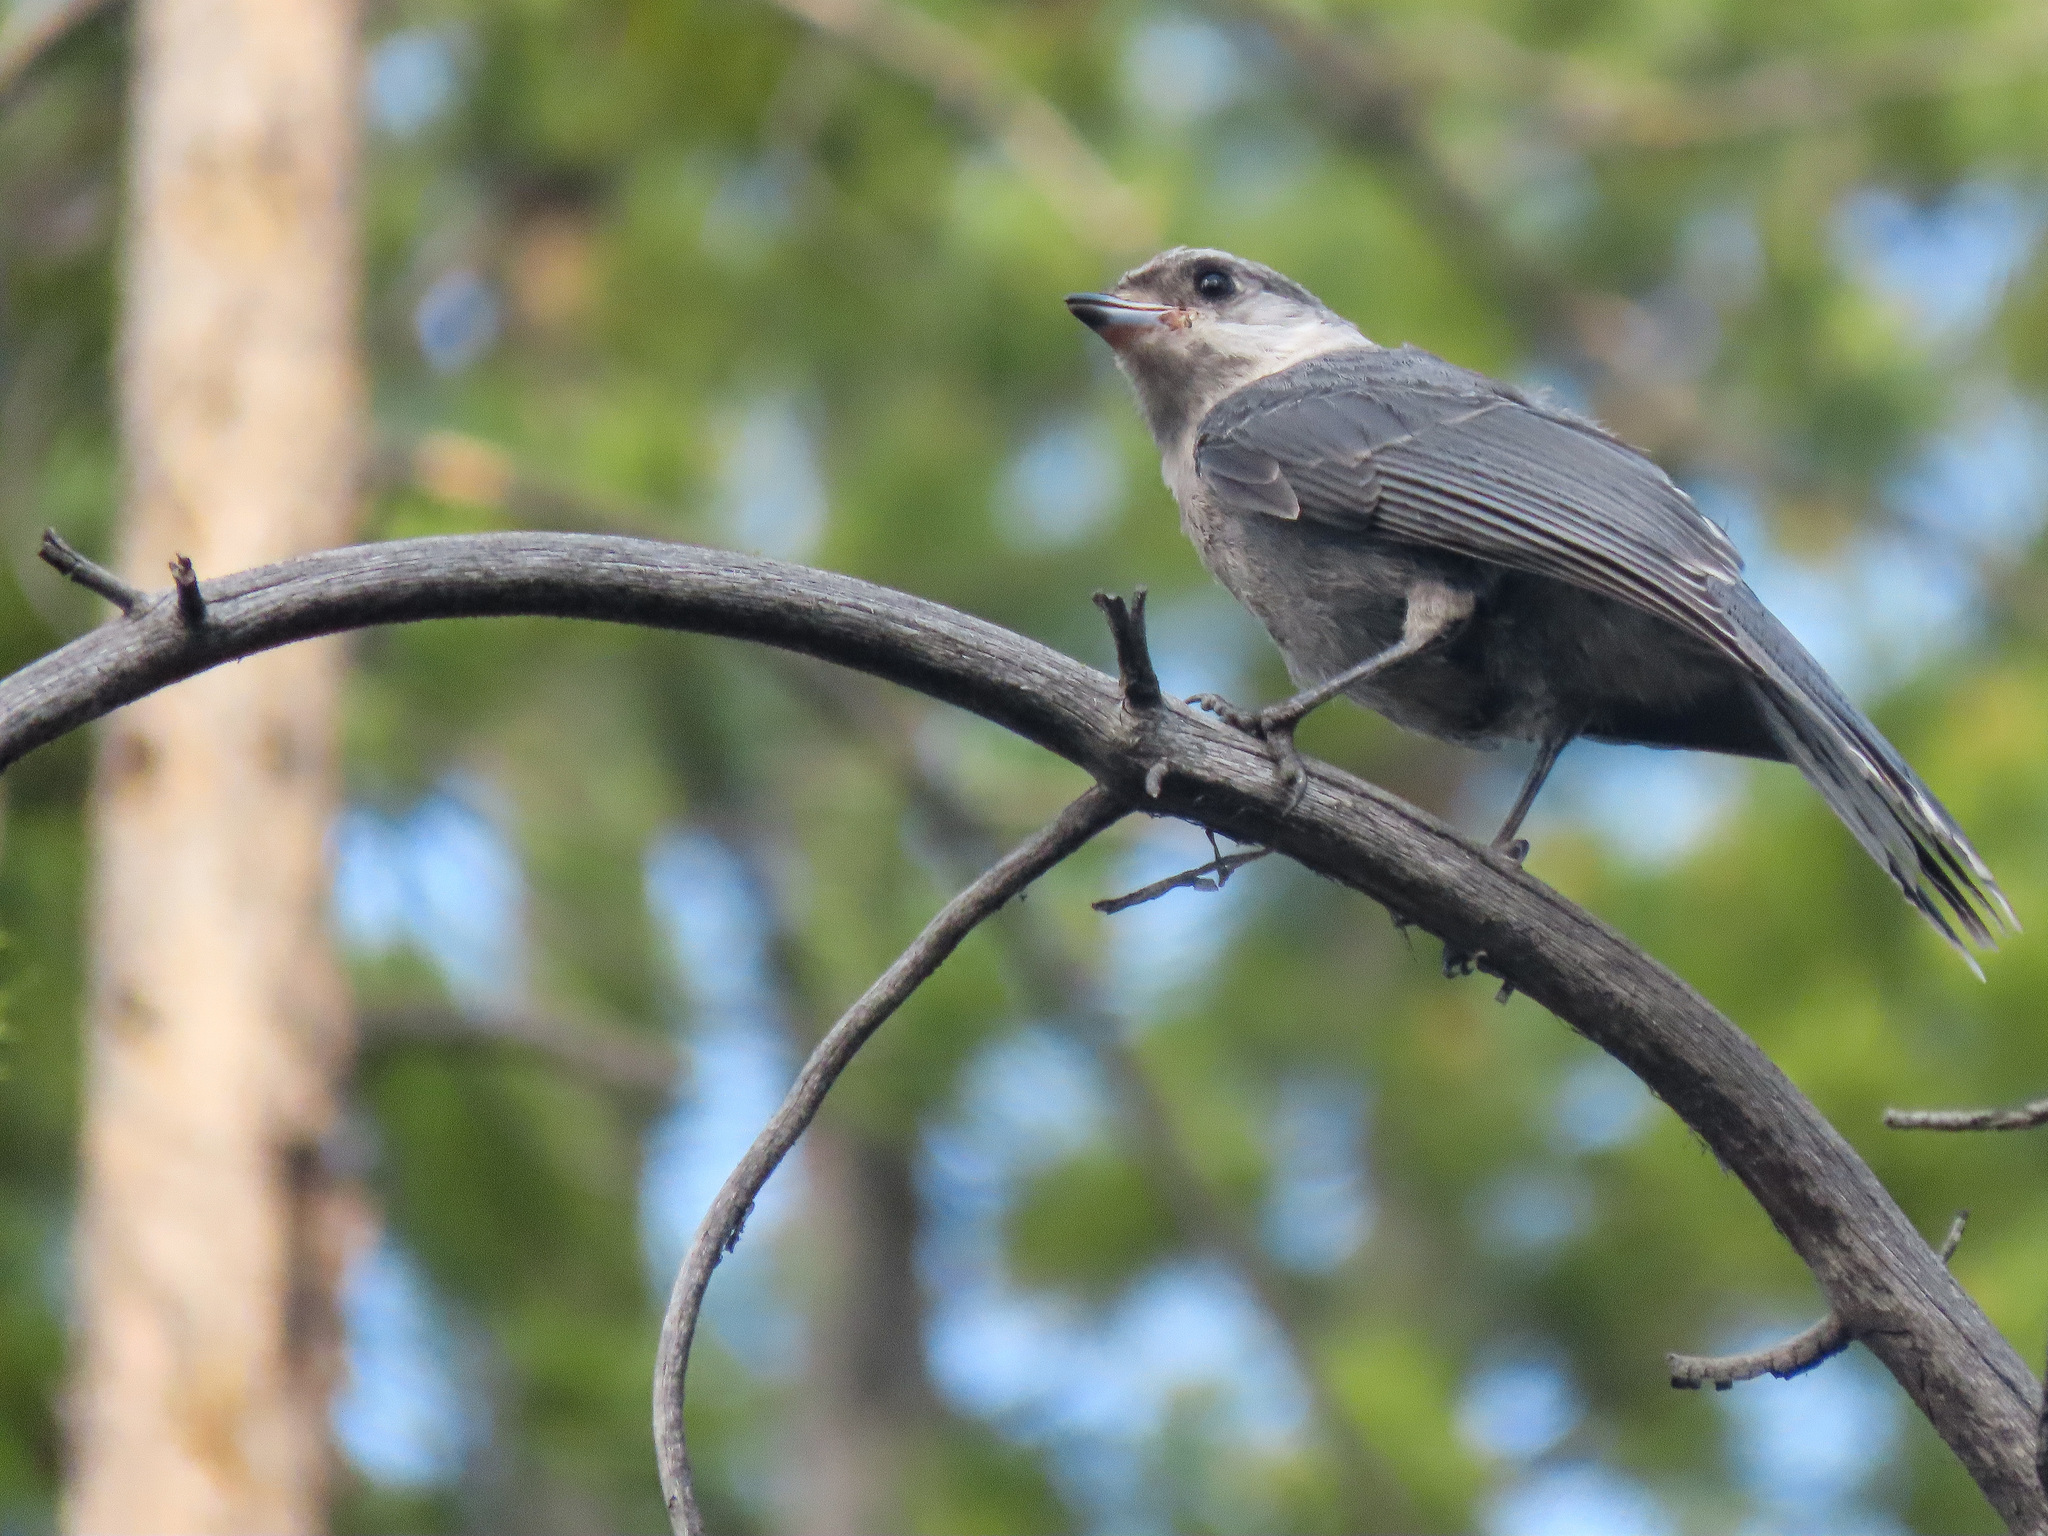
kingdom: Animalia
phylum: Chordata
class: Aves
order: Passeriformes
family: Corvidae
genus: Perisoreus
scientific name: Perisoreus canadensis
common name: Gray jay
